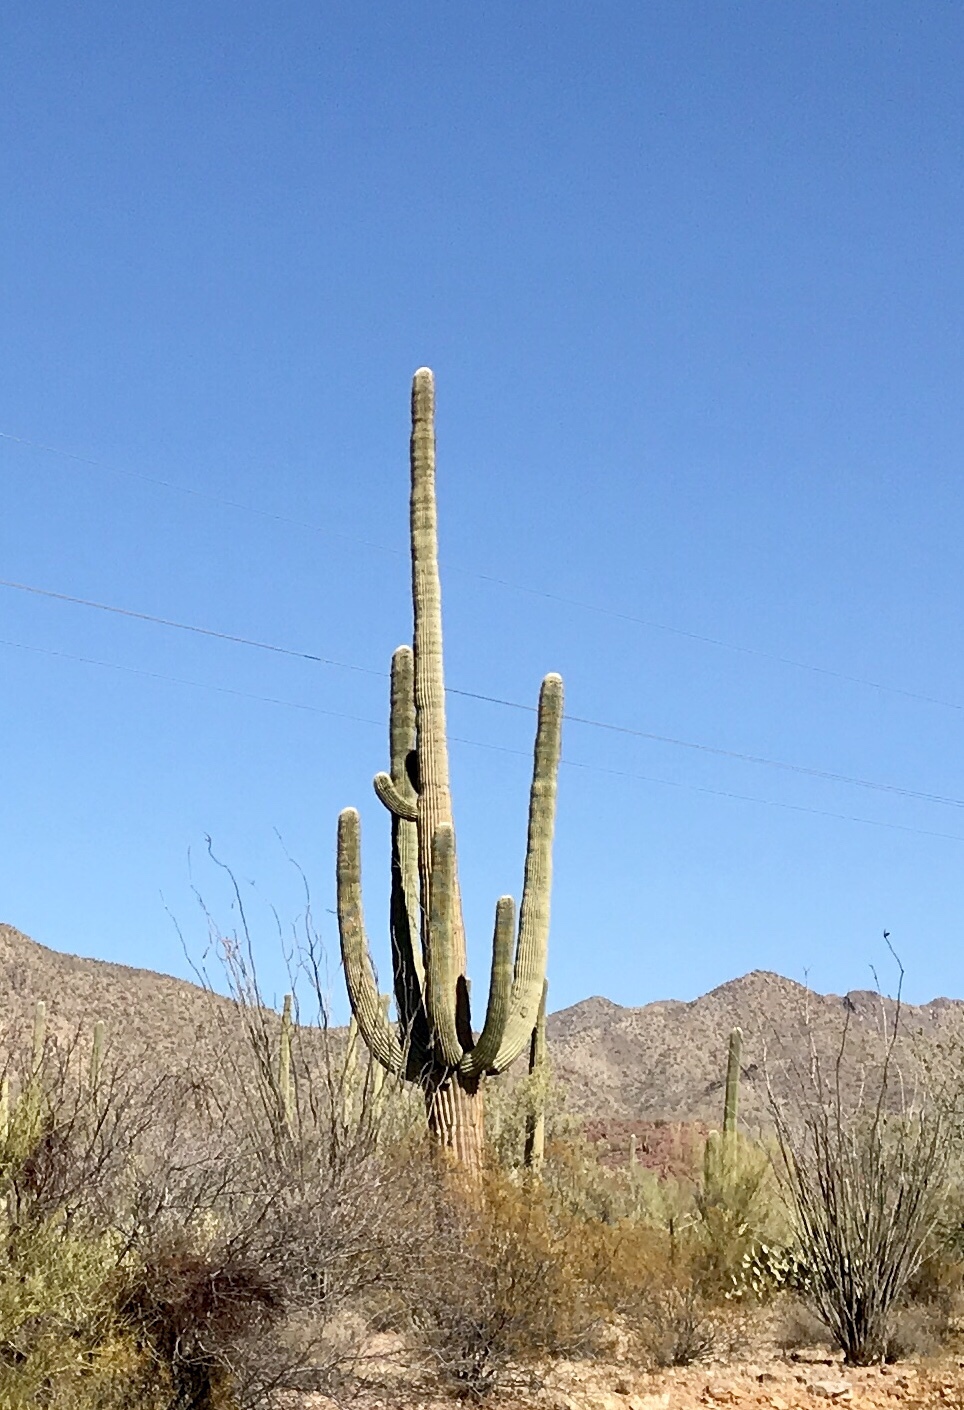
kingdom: Plantae
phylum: Tracheophyta
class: Magnoliopsida
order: Caryophyllales
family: Cactaceae
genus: Carnegiea
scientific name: Carnegiea gigantea
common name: Saguaro
